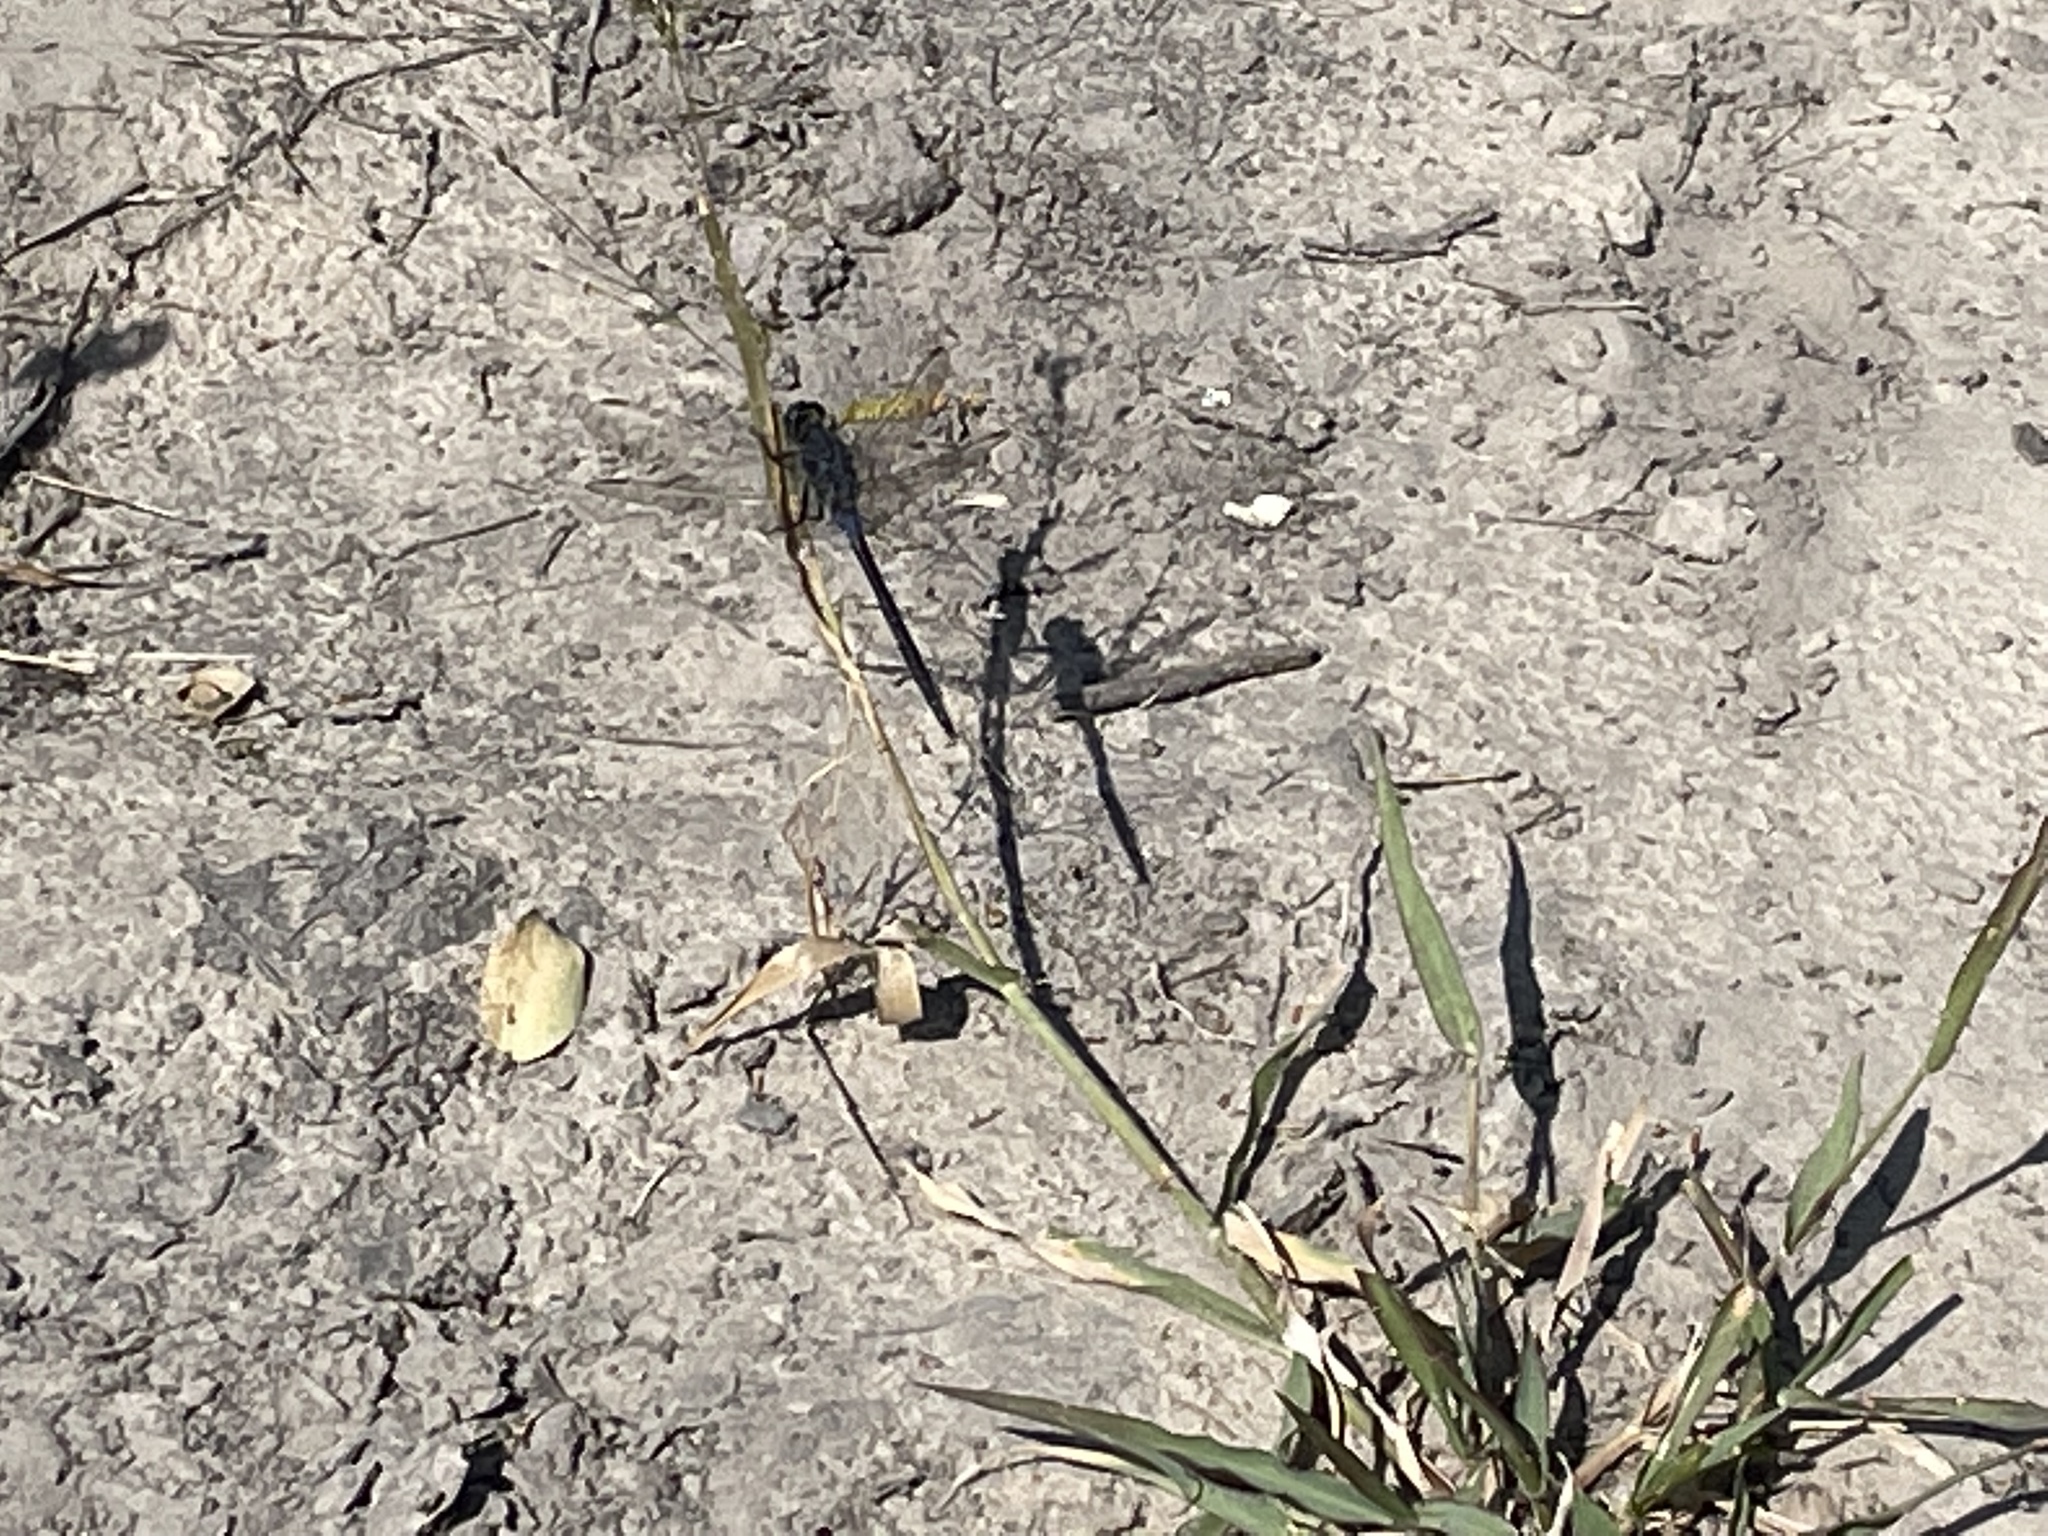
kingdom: Animalia
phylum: Arthropoda
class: Insecta
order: Odonata
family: Libellulidae
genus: Orthetrum
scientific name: Orthetrum trinacria
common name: Long skimmer
